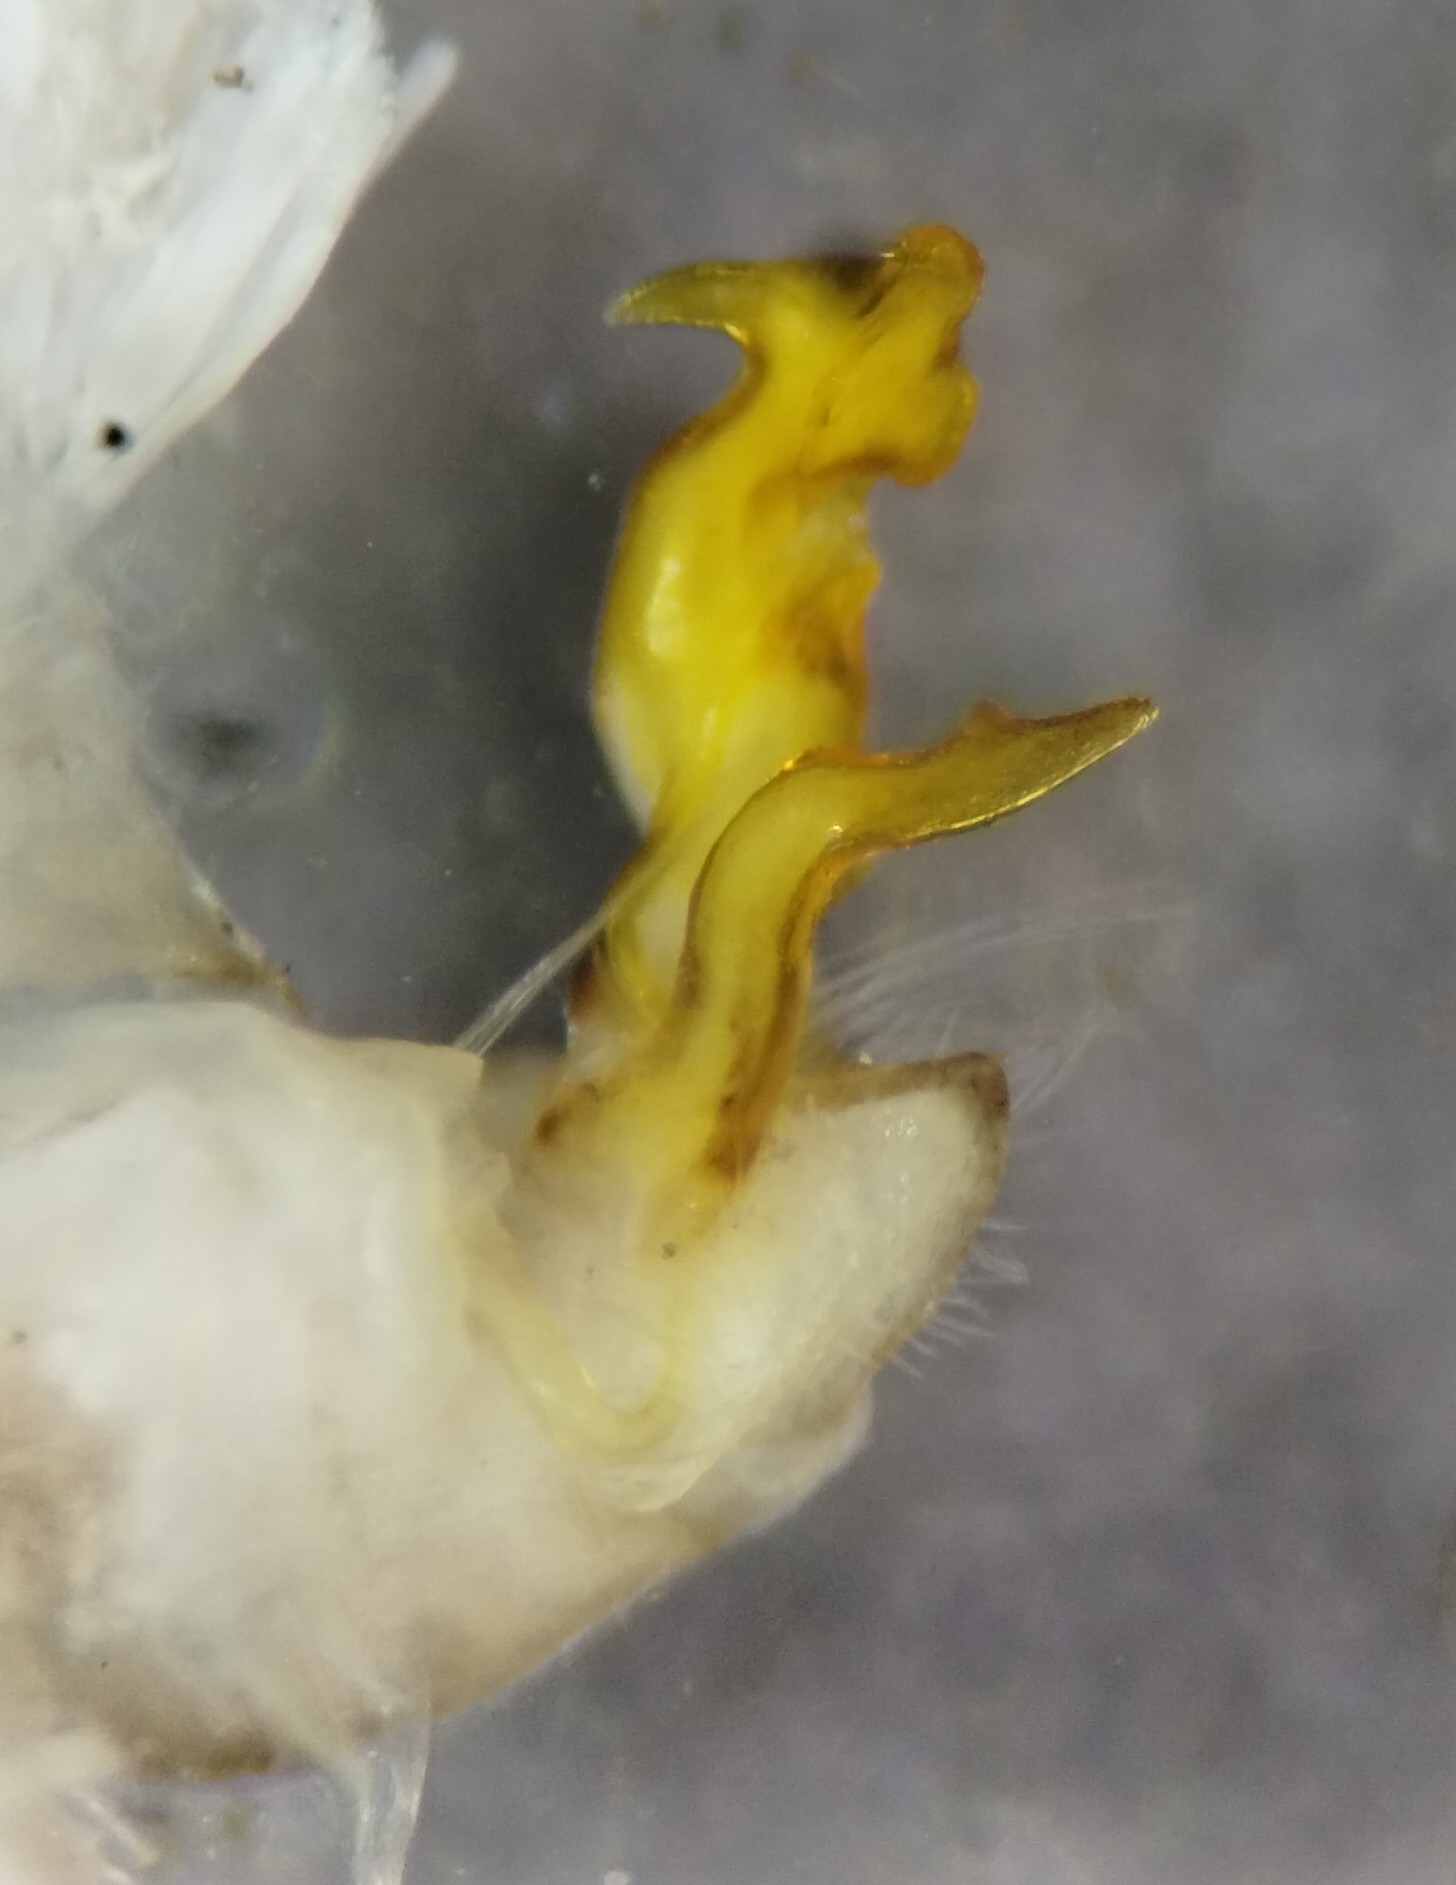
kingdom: Animalia
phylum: Arthropoda
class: Diplopoda
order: Polydesmida
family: Xystodesmidae
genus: Caralinda
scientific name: Caralinda causeyi
